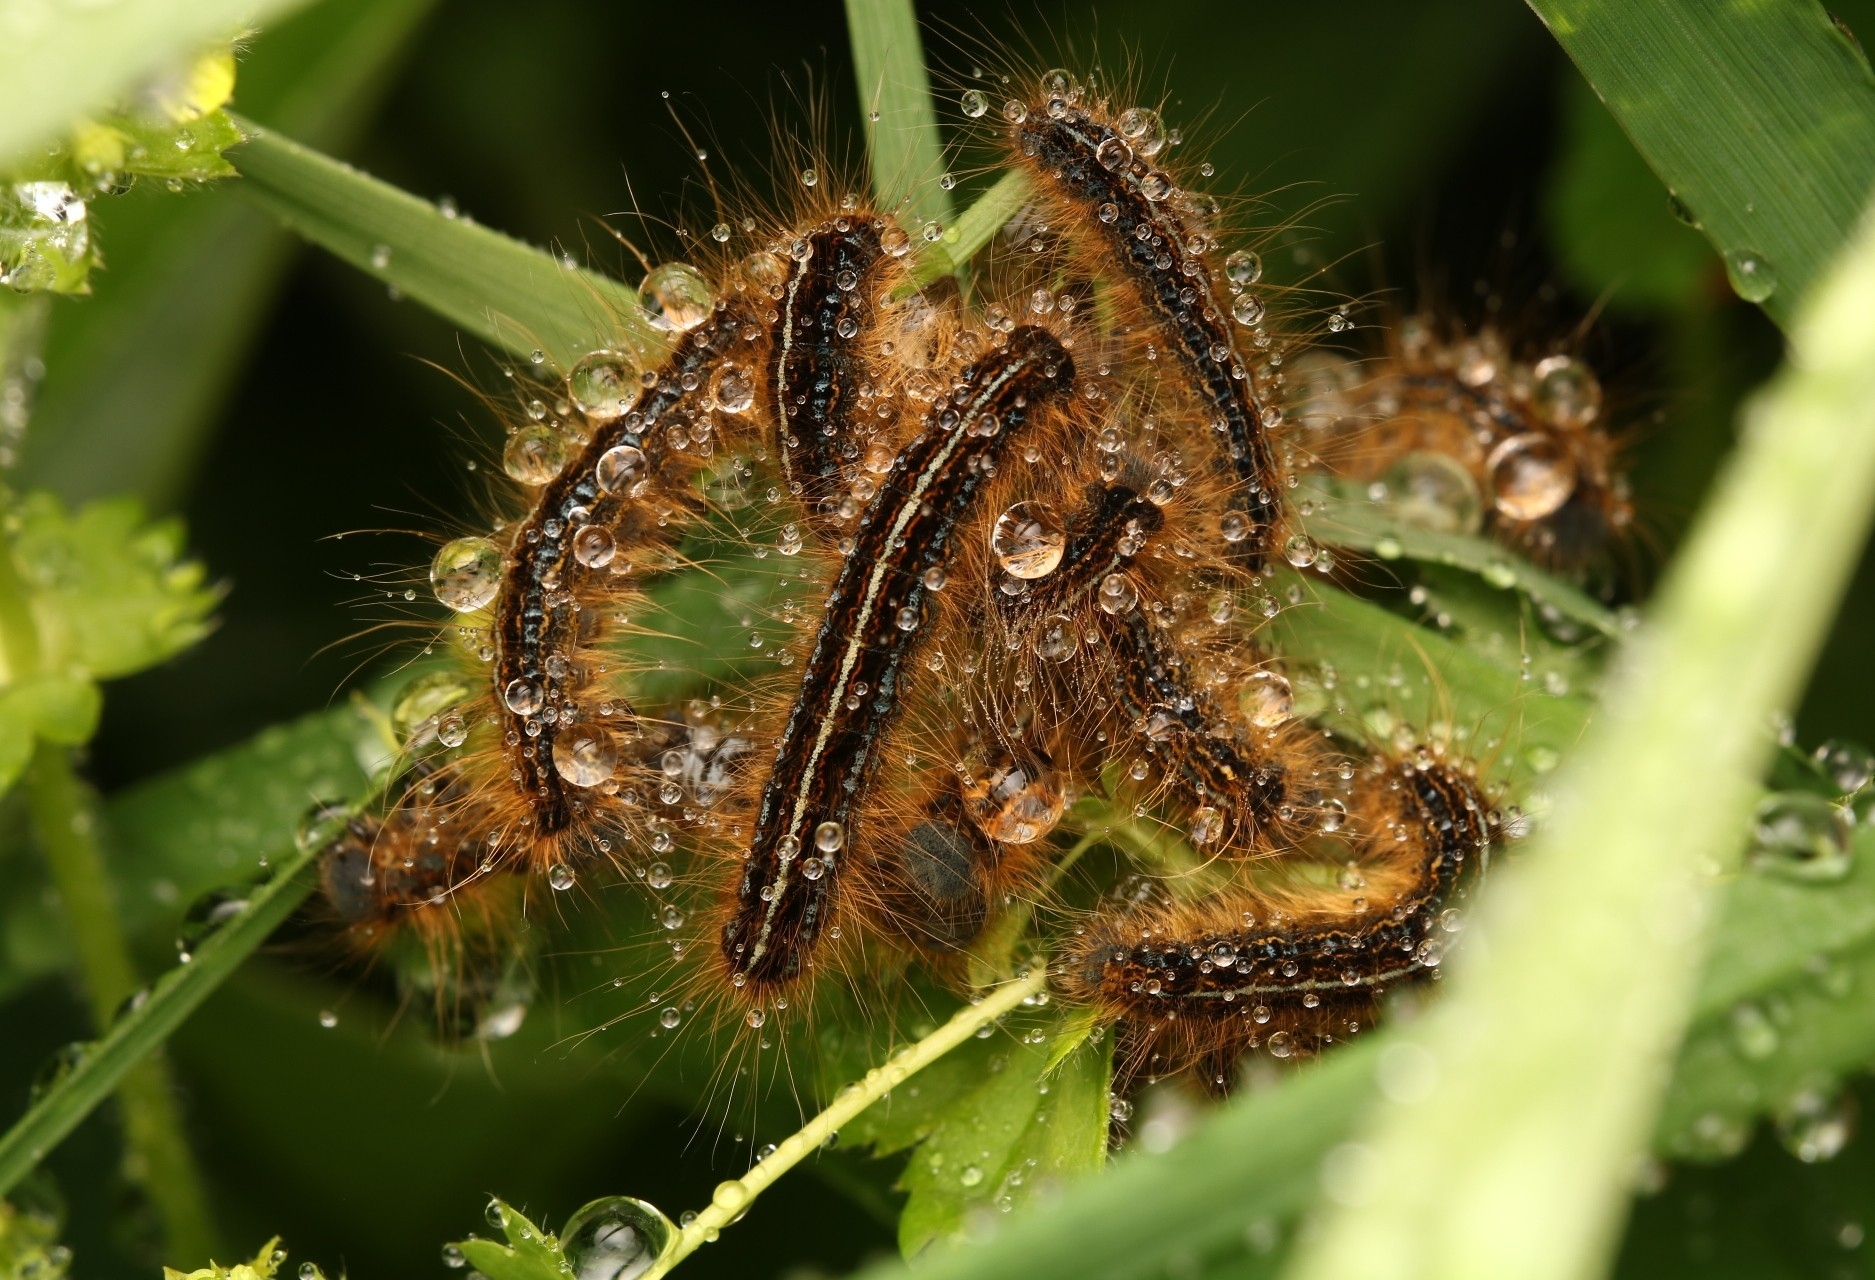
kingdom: Animalia
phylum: Arthropoda
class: Insecta
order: Lepidoptera
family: Lasiocampidae
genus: Malacosoma
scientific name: Malacosoma alpicola
